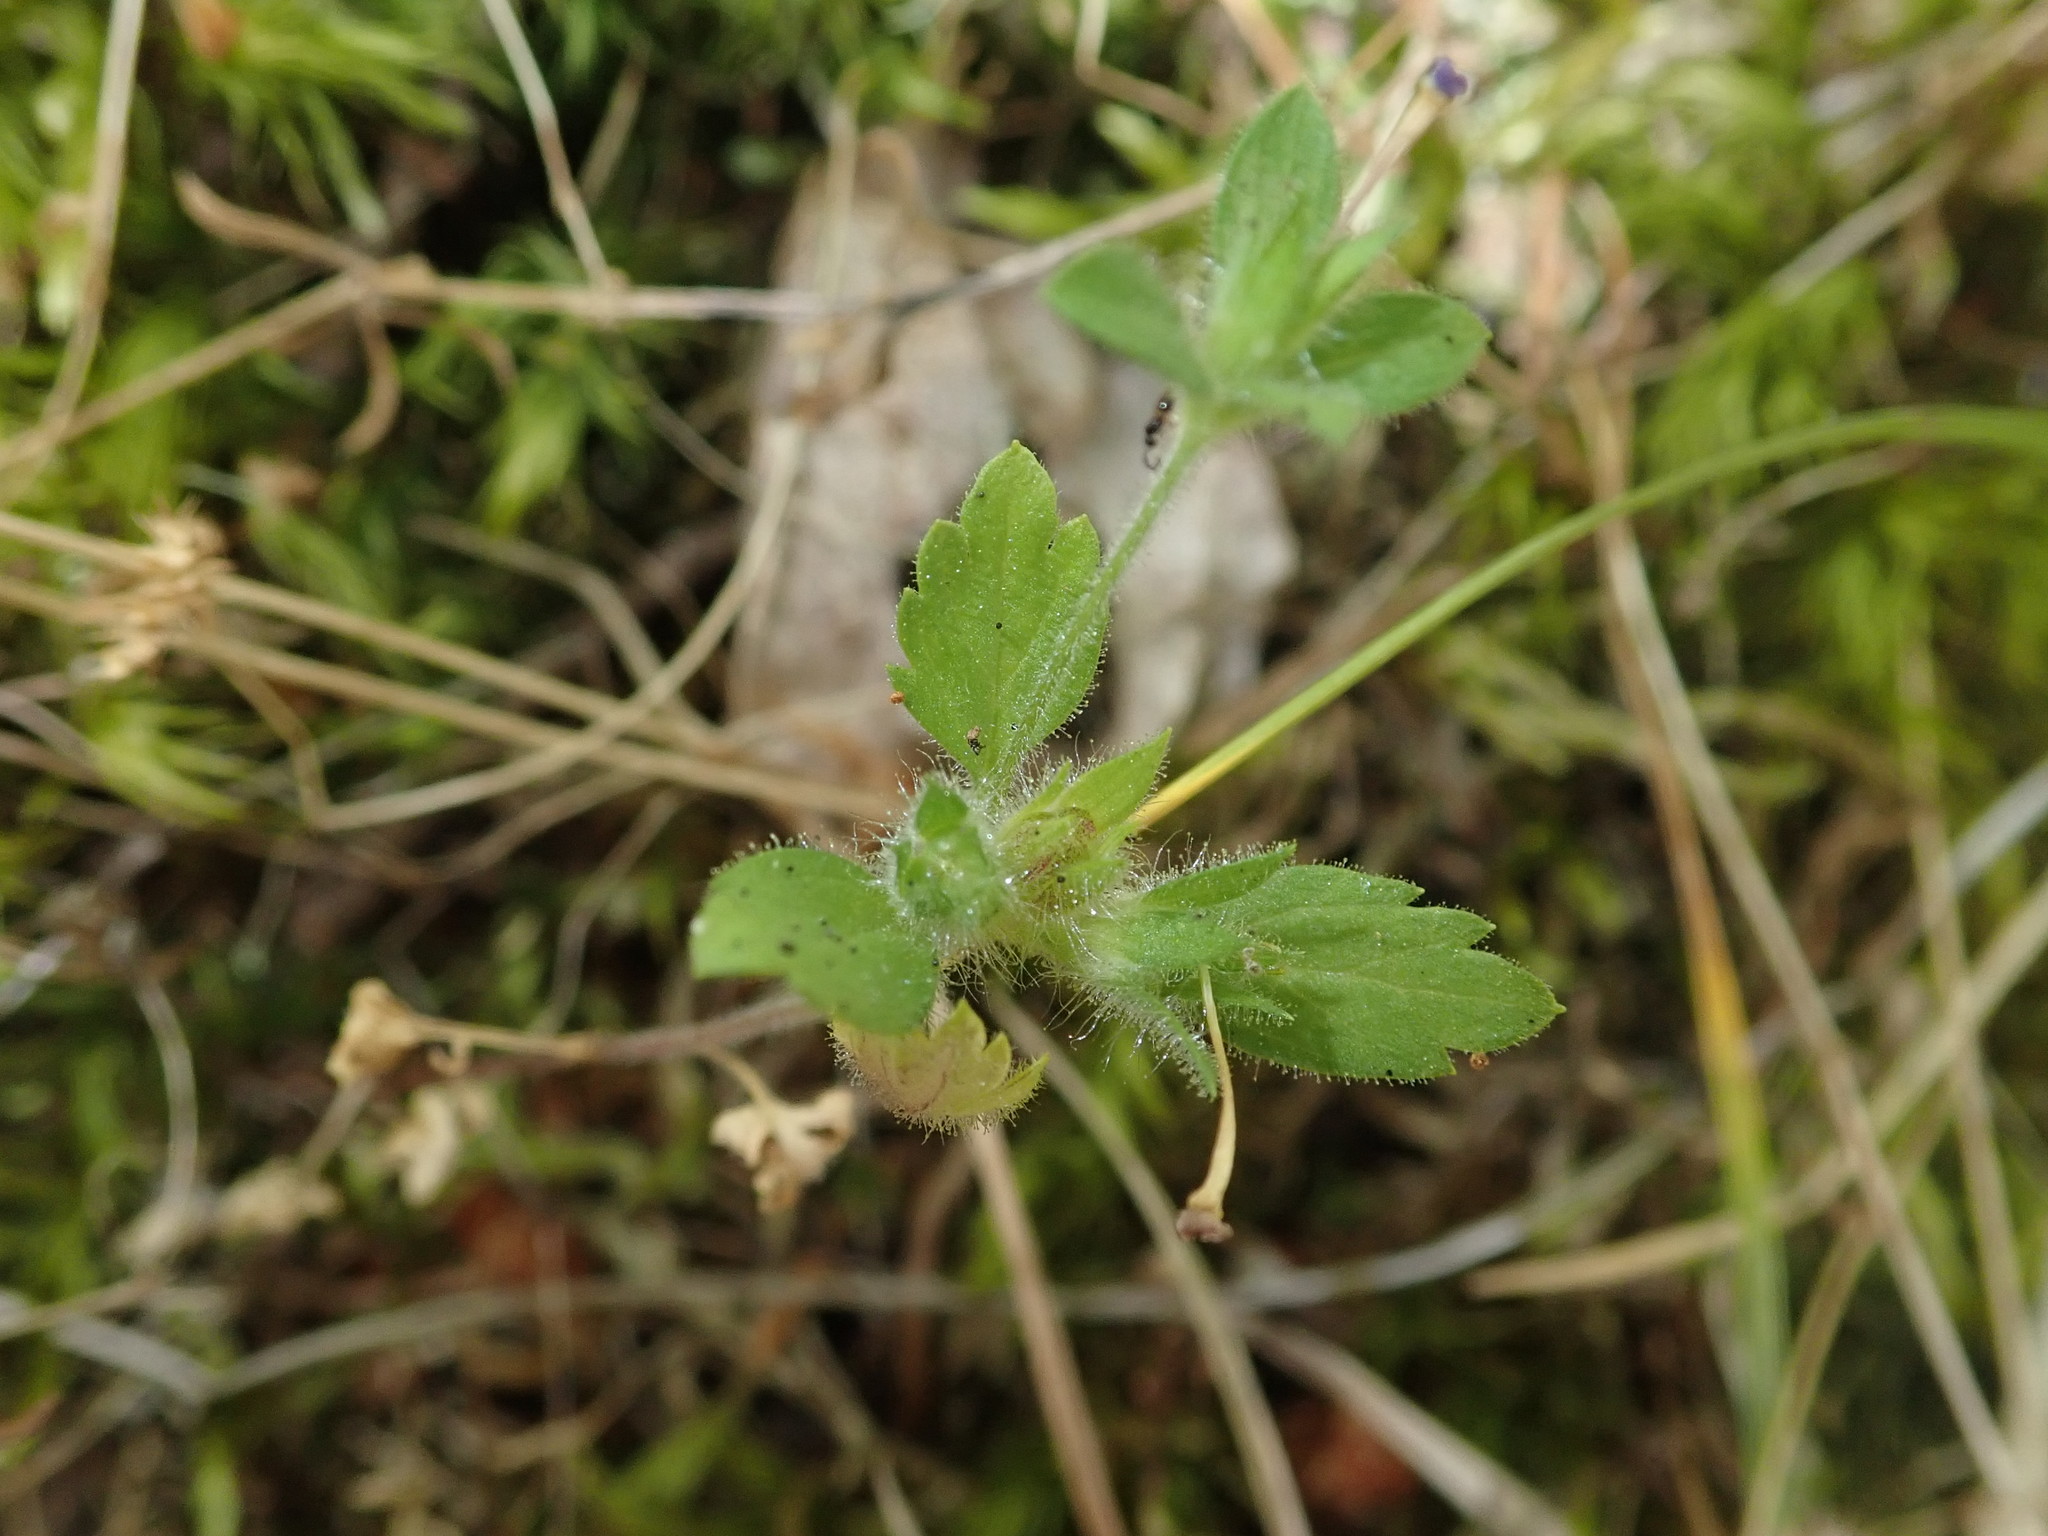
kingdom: Plantae
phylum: Tracheophyta
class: Magnoliopsida
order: Ericales
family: Polemoniaceae
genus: Collomia
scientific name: Collomia heterophylla
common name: Variable-leaved collomia
